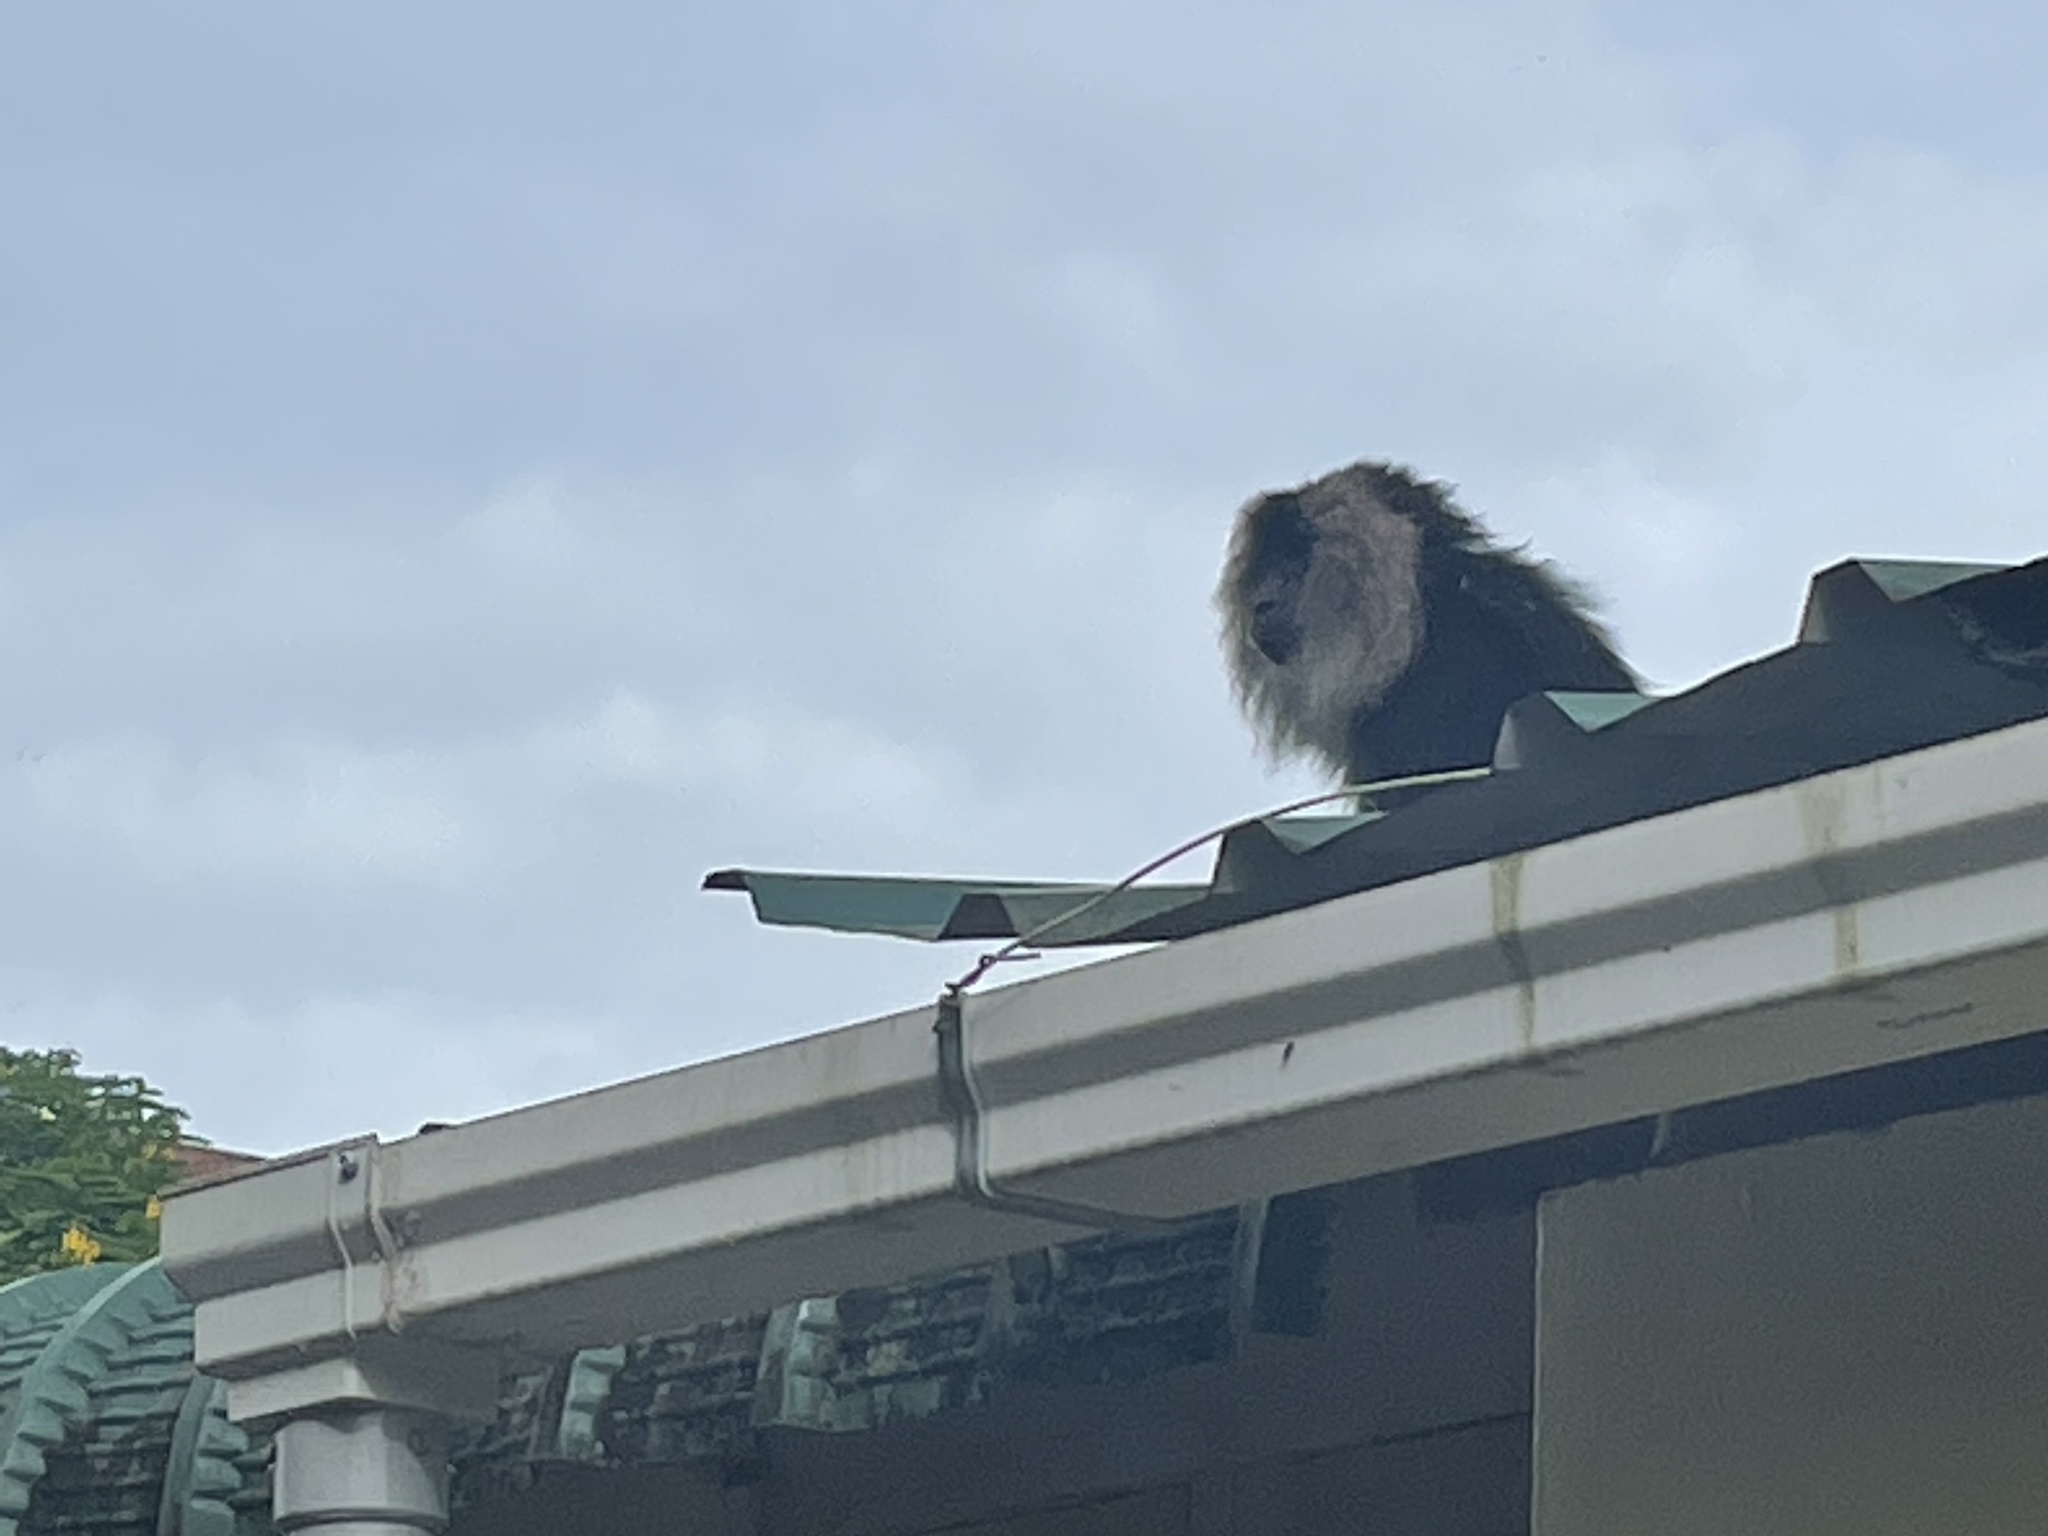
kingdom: Animalia
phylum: Chordata
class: Mammalia
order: Primates
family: Cercopithecidae
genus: Macaca
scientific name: Macaca silenus
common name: Lion-tailed macaque
